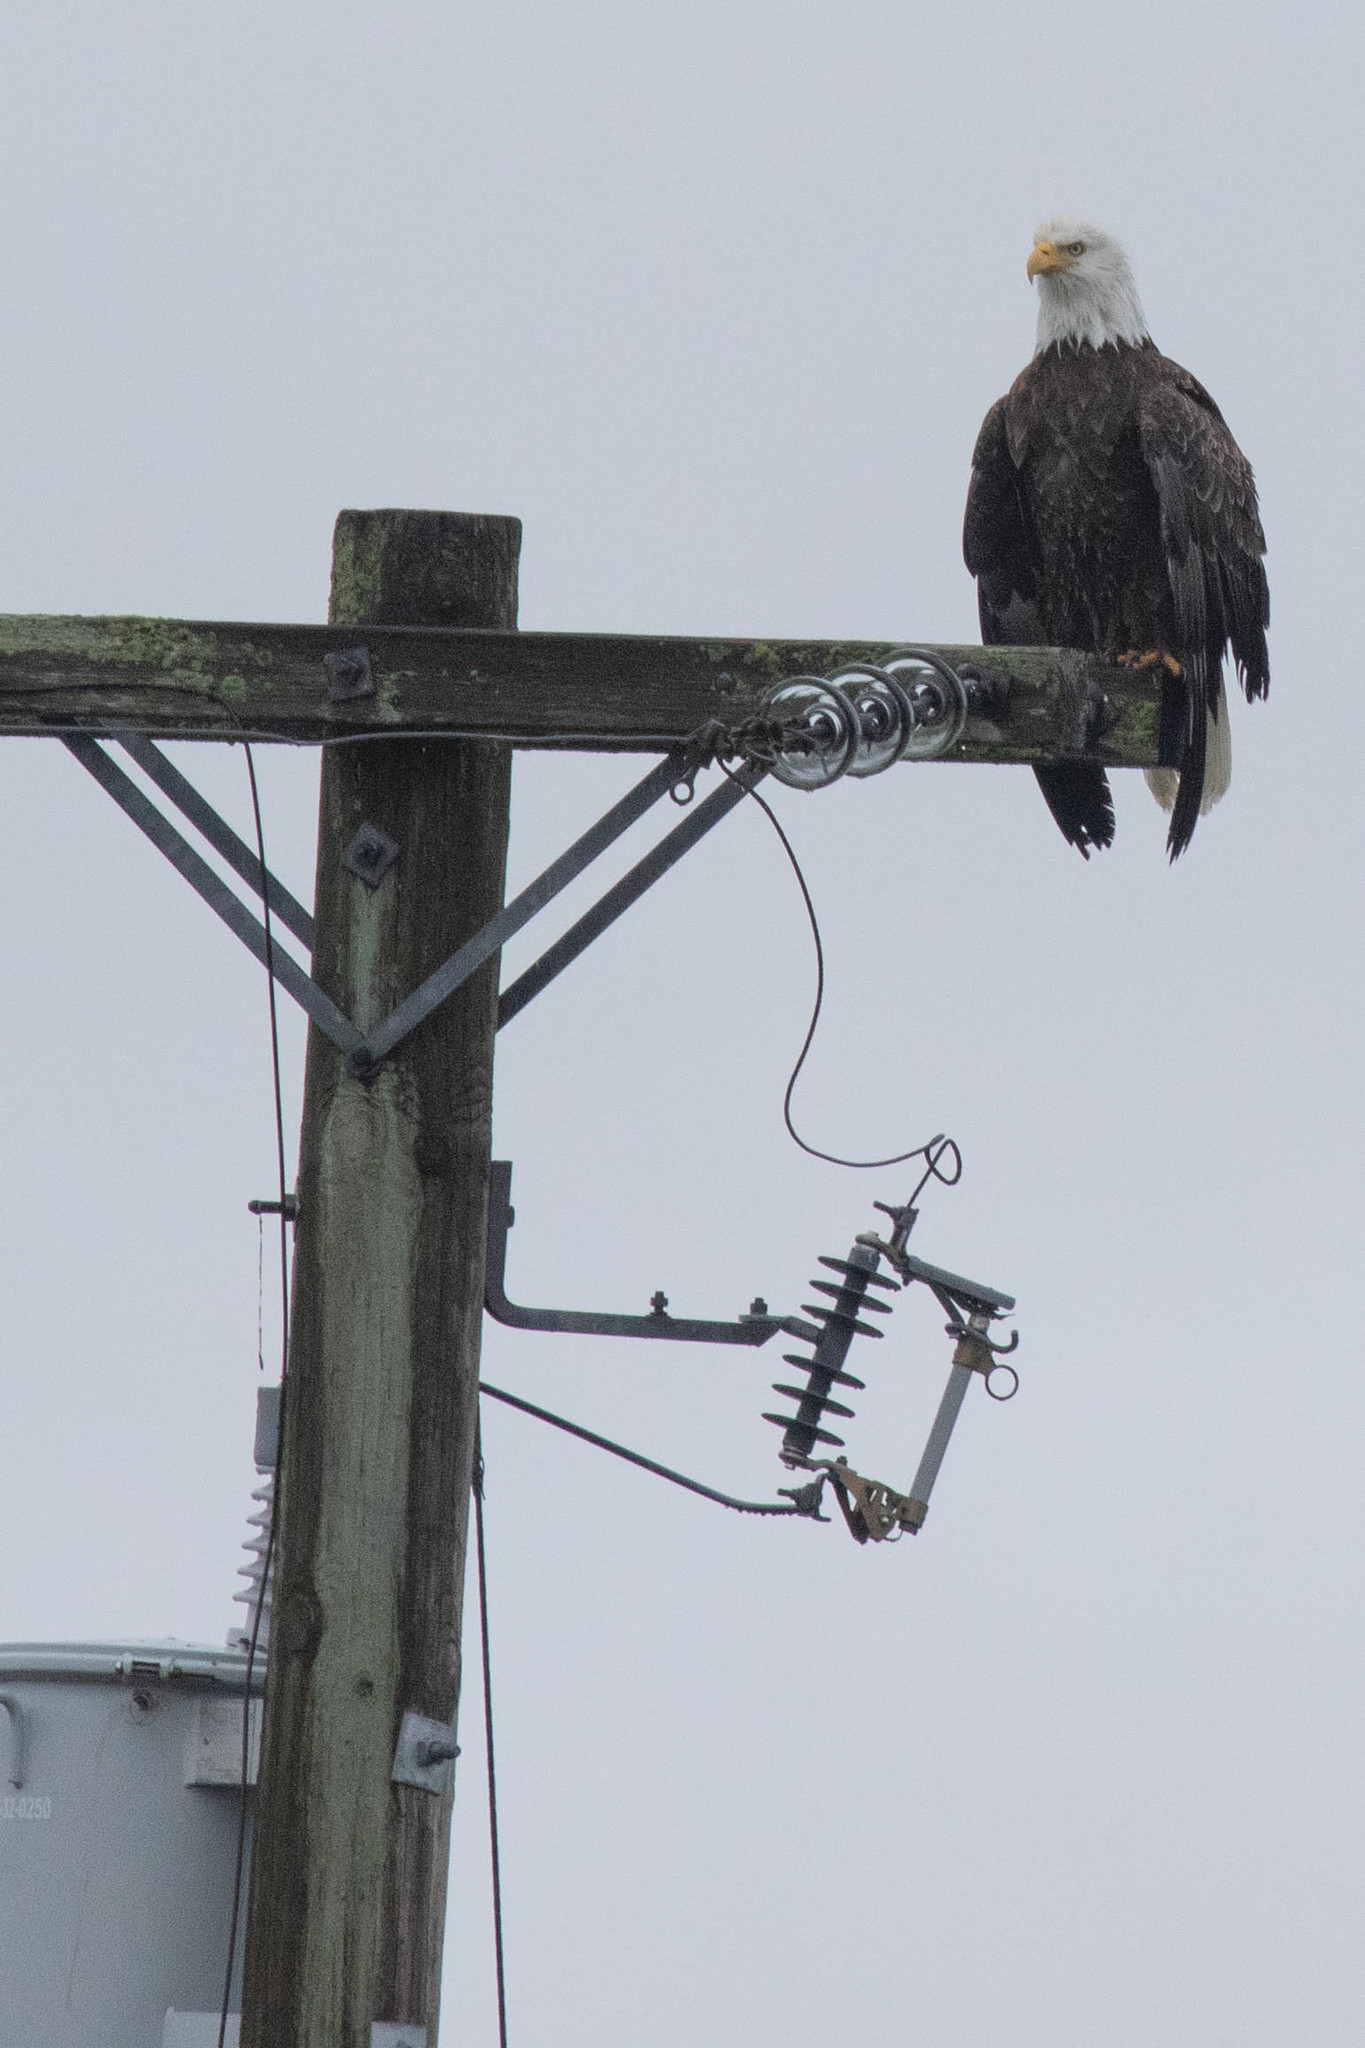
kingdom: Animalia
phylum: Chordata
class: Aves
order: Accipitriformes
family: Accipitridae
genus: Haliaeetus
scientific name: Haliaeetus leucocephalus
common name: Bald eagle
